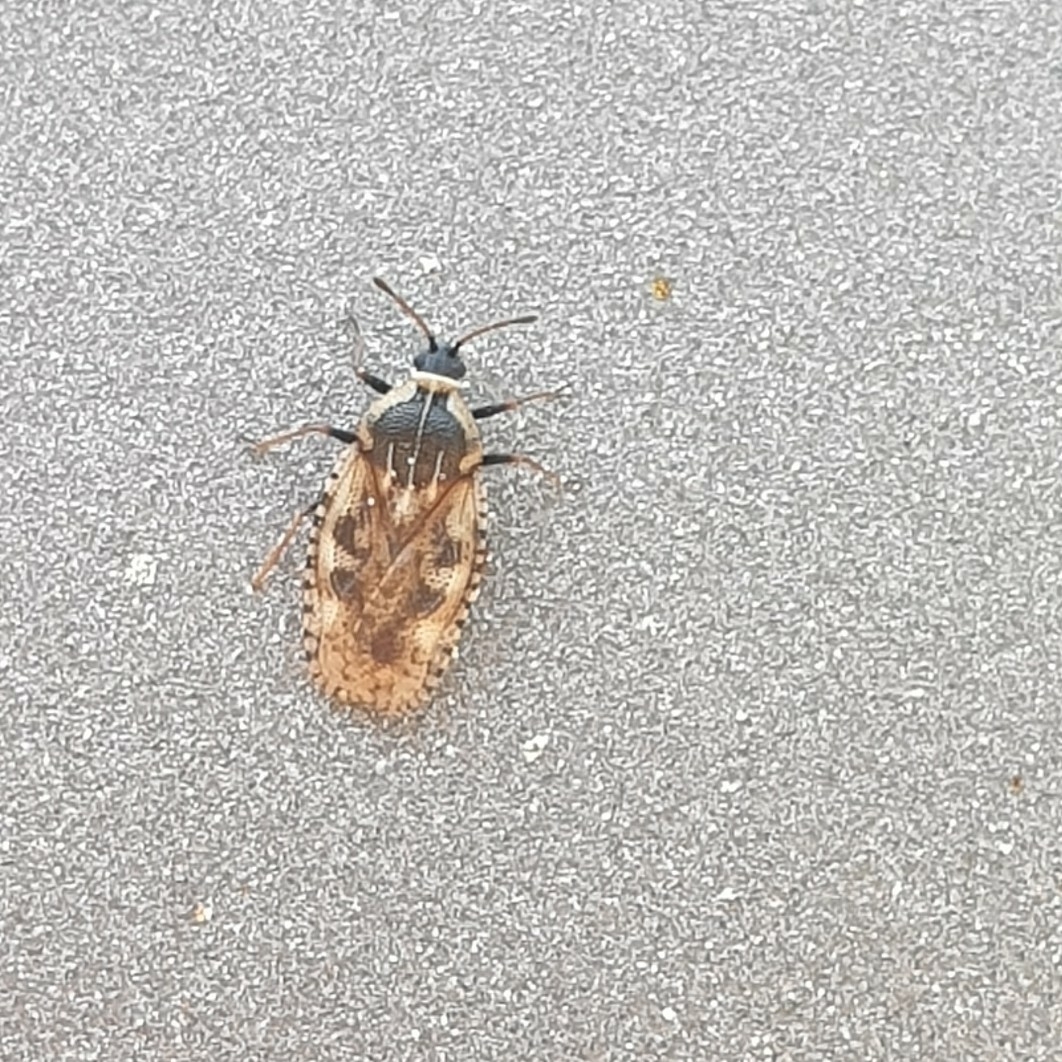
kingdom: Animalia
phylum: Arthropoda
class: Insecta
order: Hemiptera
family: Tingidae
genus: Dictyla
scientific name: Dictyla echii
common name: Lace bug
